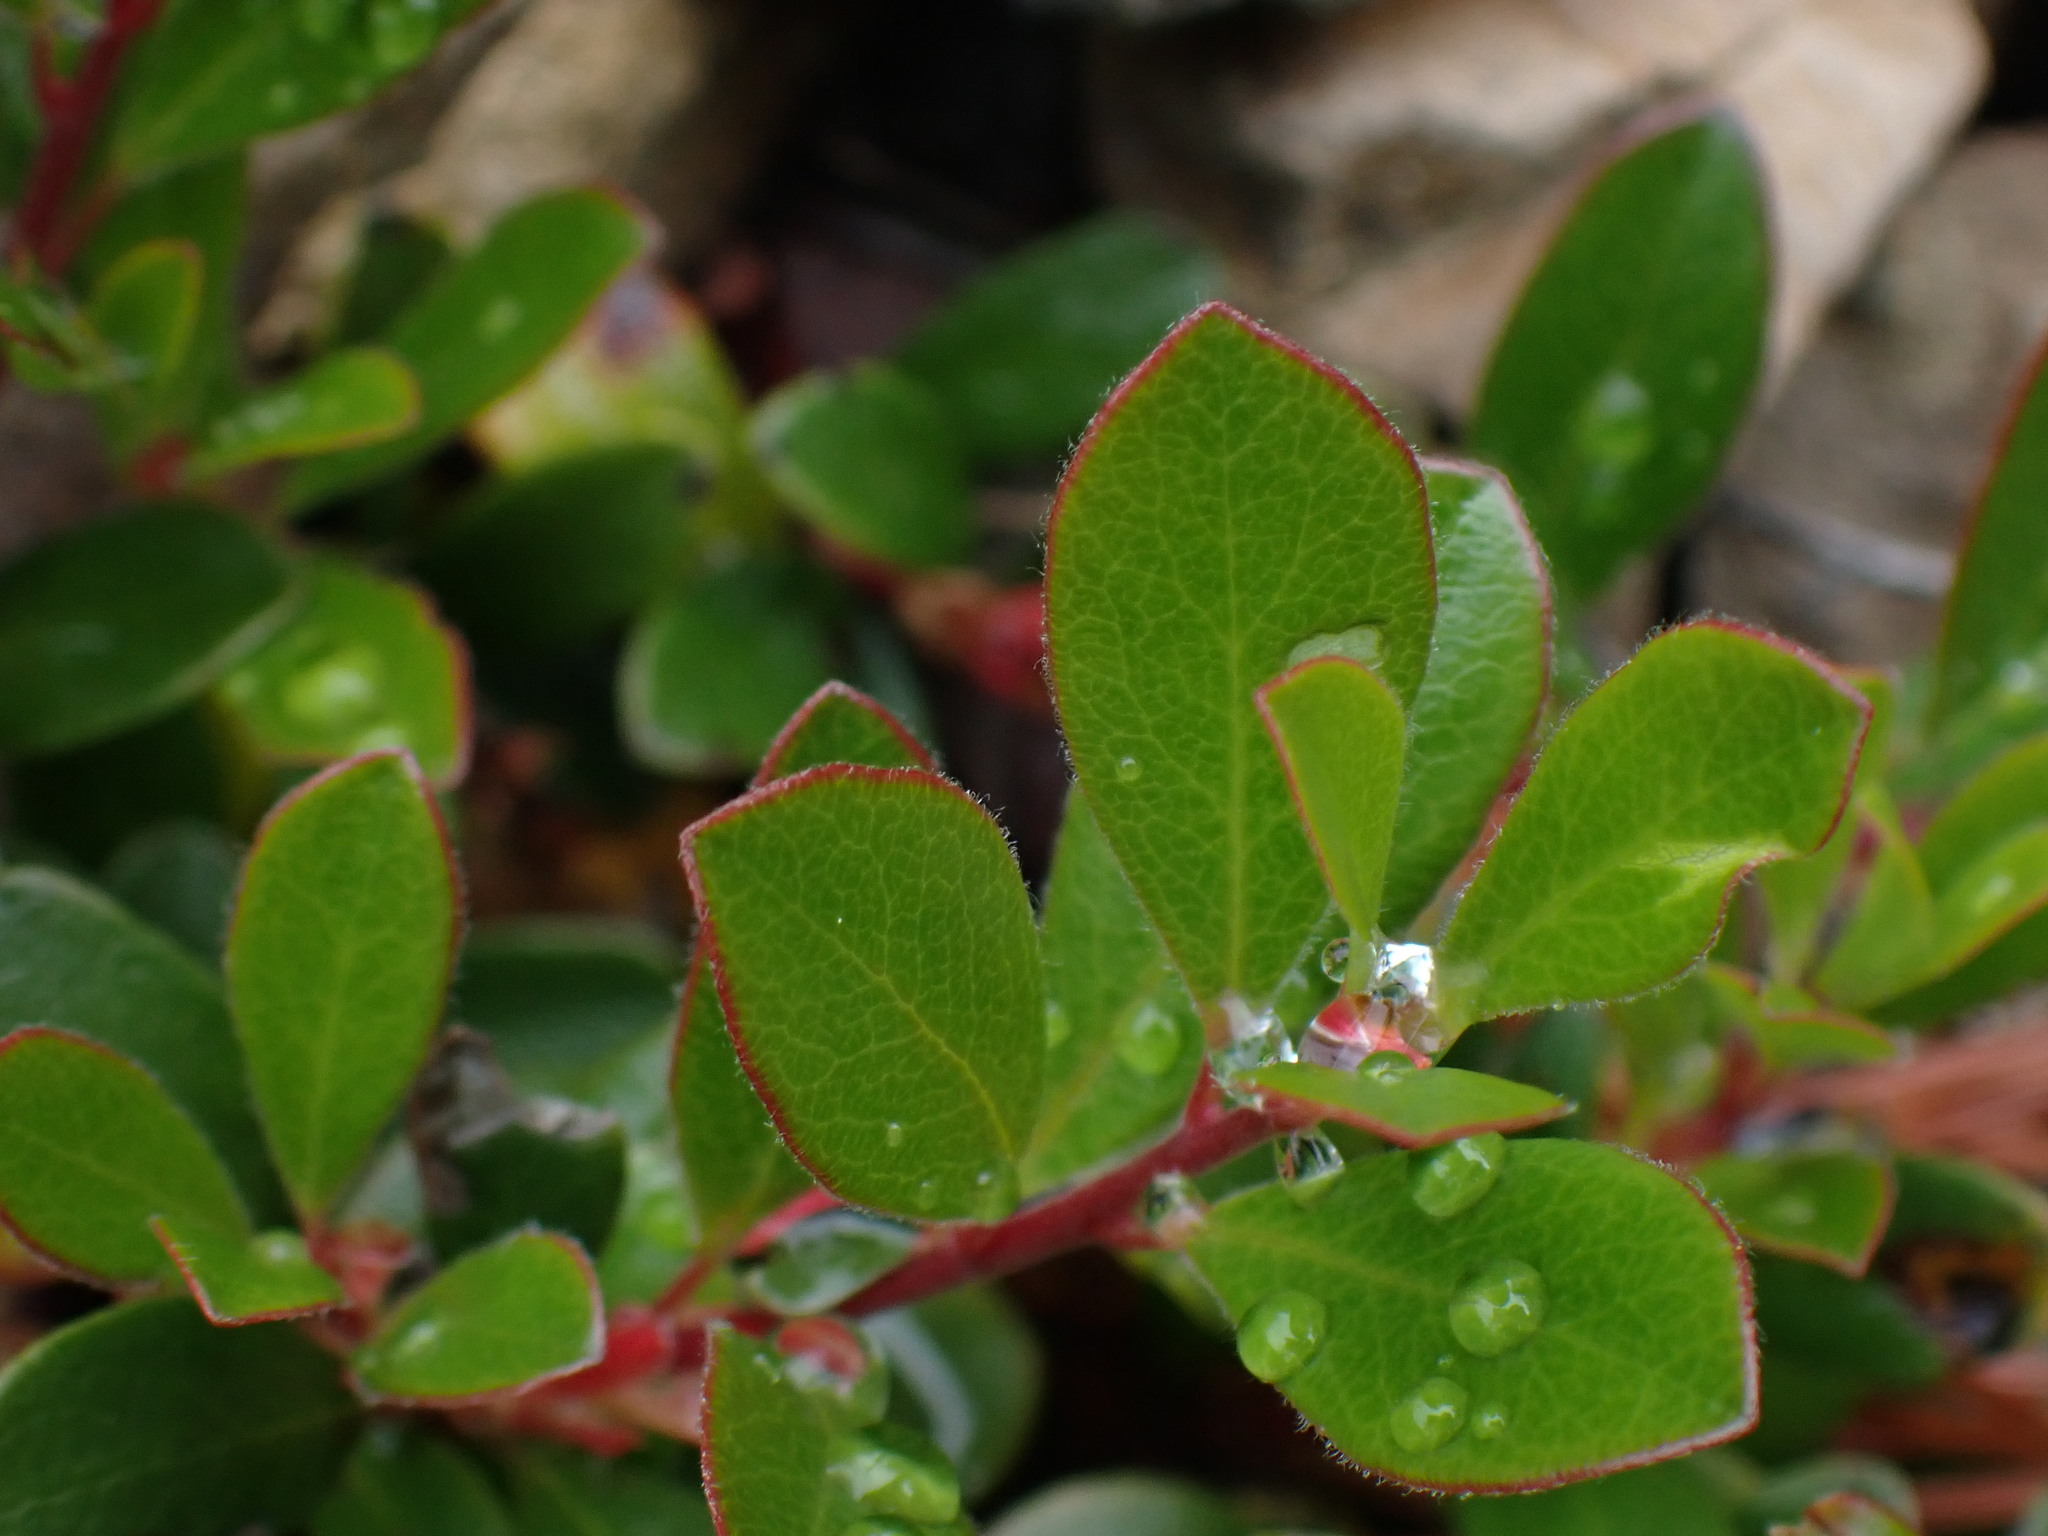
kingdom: Plantae
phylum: Tracheophyta
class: Magnoliopsida
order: Ericales
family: Ericaceae
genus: Arctostaphylos
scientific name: Arctostaphylos uva-ursi
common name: Bearberry
